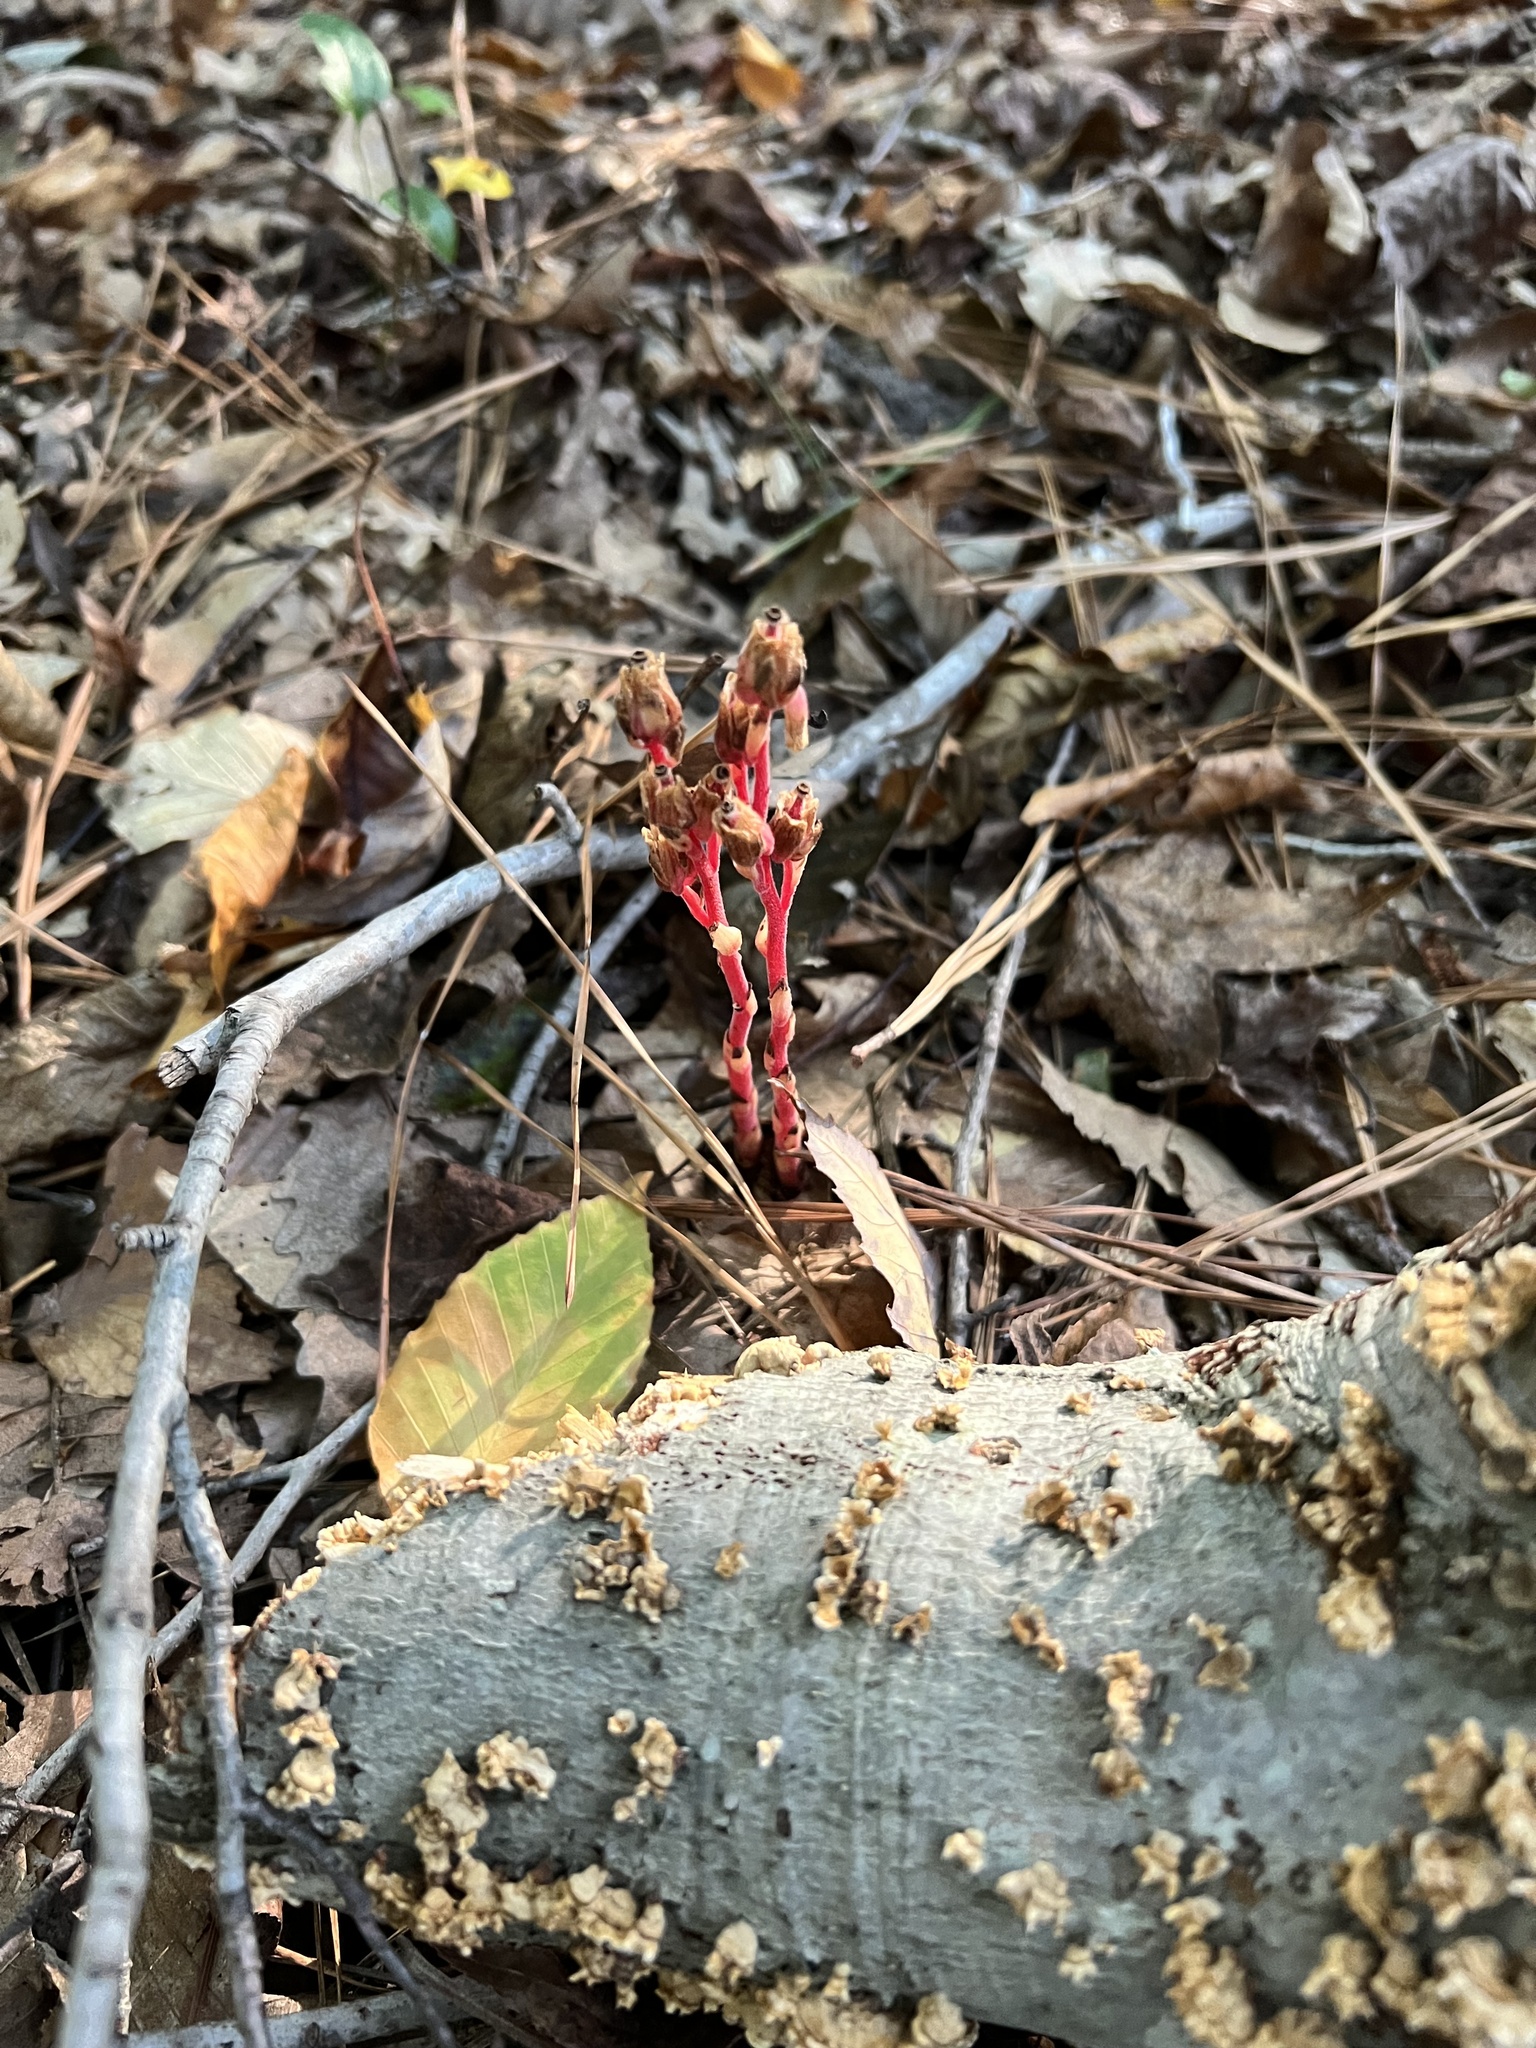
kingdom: Plantae
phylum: Tracheophyta
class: Magnoliopsida
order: Ericales
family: Ericaceae
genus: Hypopitys
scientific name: Hypopitys monotropa
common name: Yellow bird's-nest
